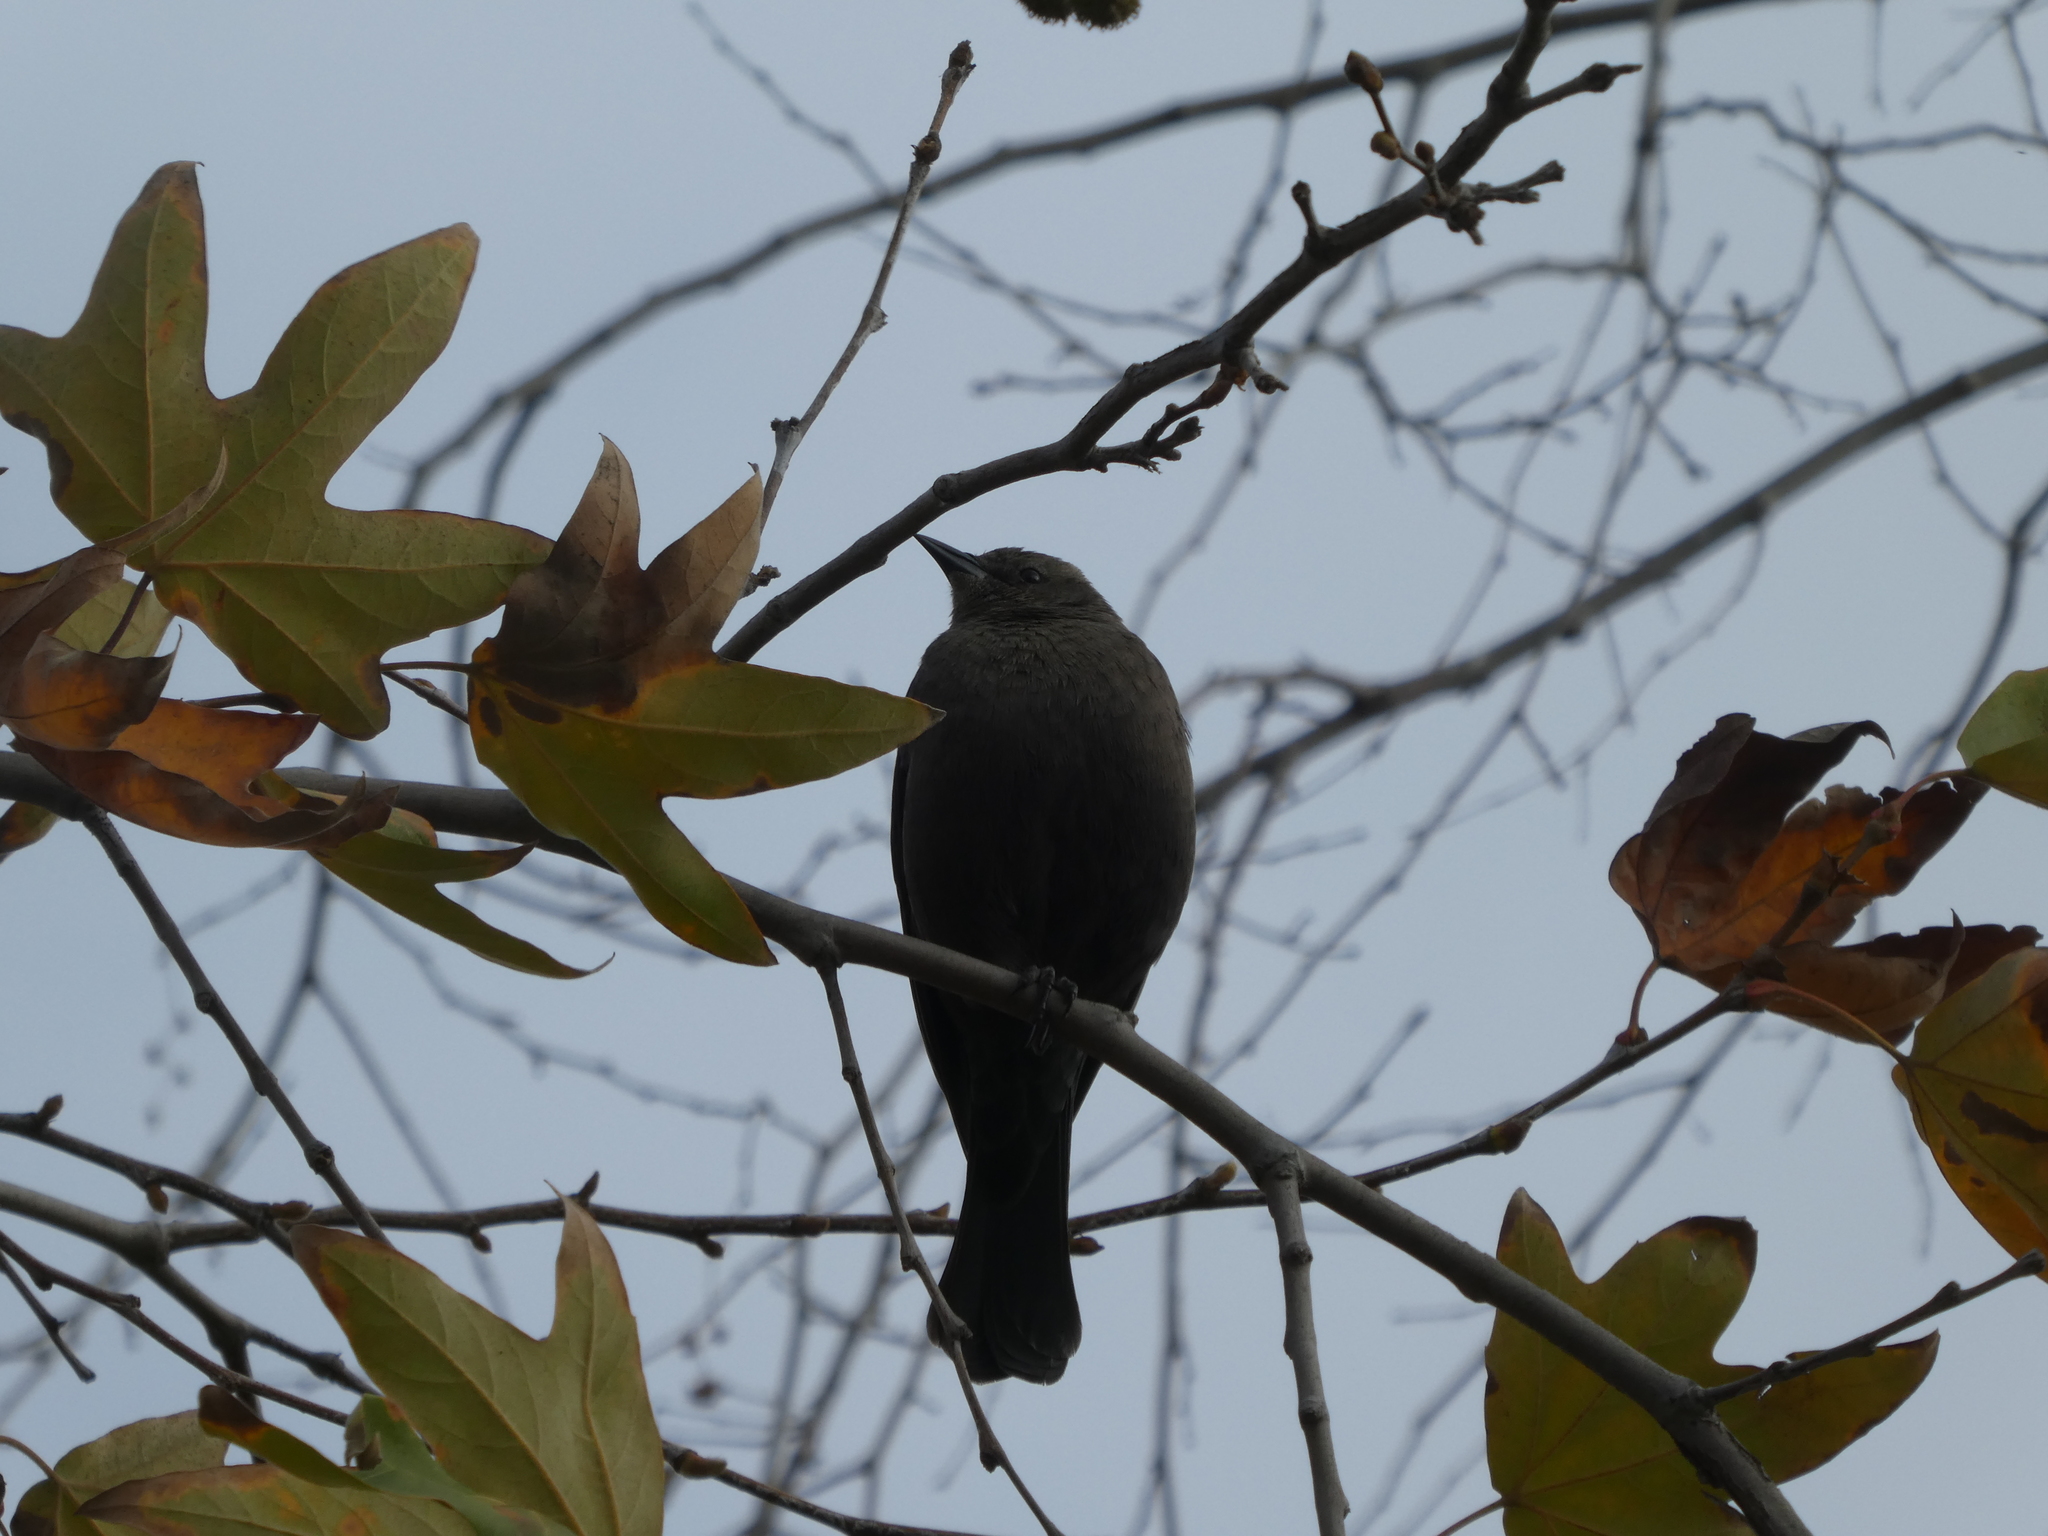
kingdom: Animalia
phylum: Chordata
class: Aves
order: Passeriformes
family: Icteridae
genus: Euphagus
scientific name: Euphagus cyanocephalus
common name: Brewer's blackbird
